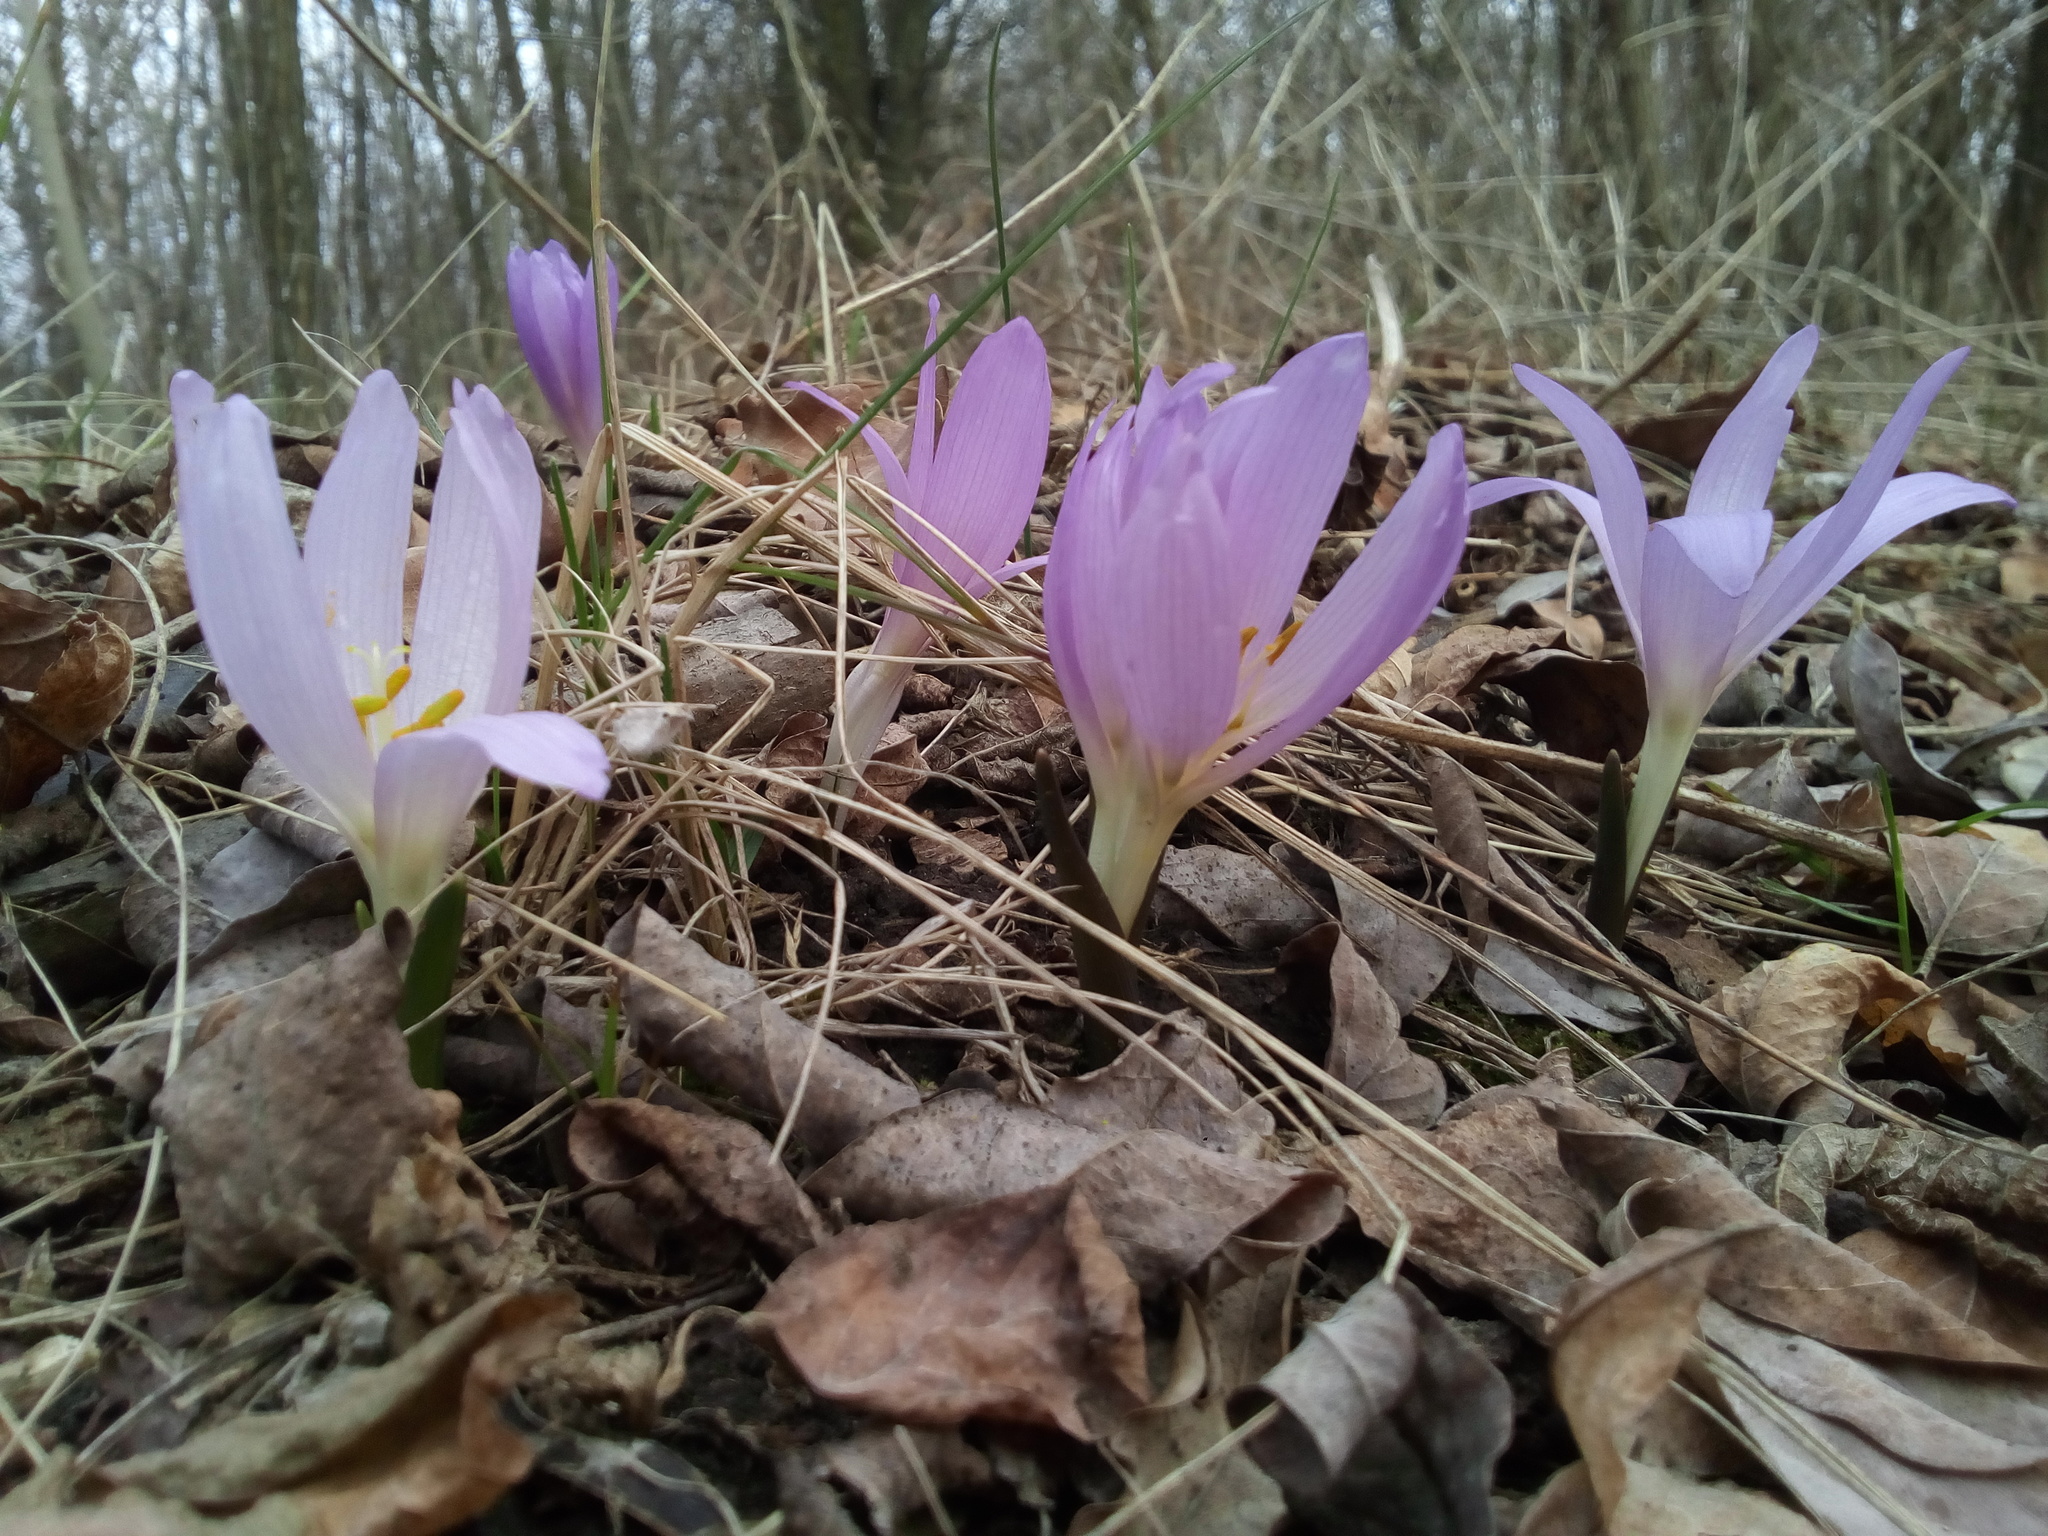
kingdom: Plantae
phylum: Tracheophyta
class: Liliopsida
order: Liliales
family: Colchicaceae
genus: Colchicum
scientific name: Colchicum bulbocodium
